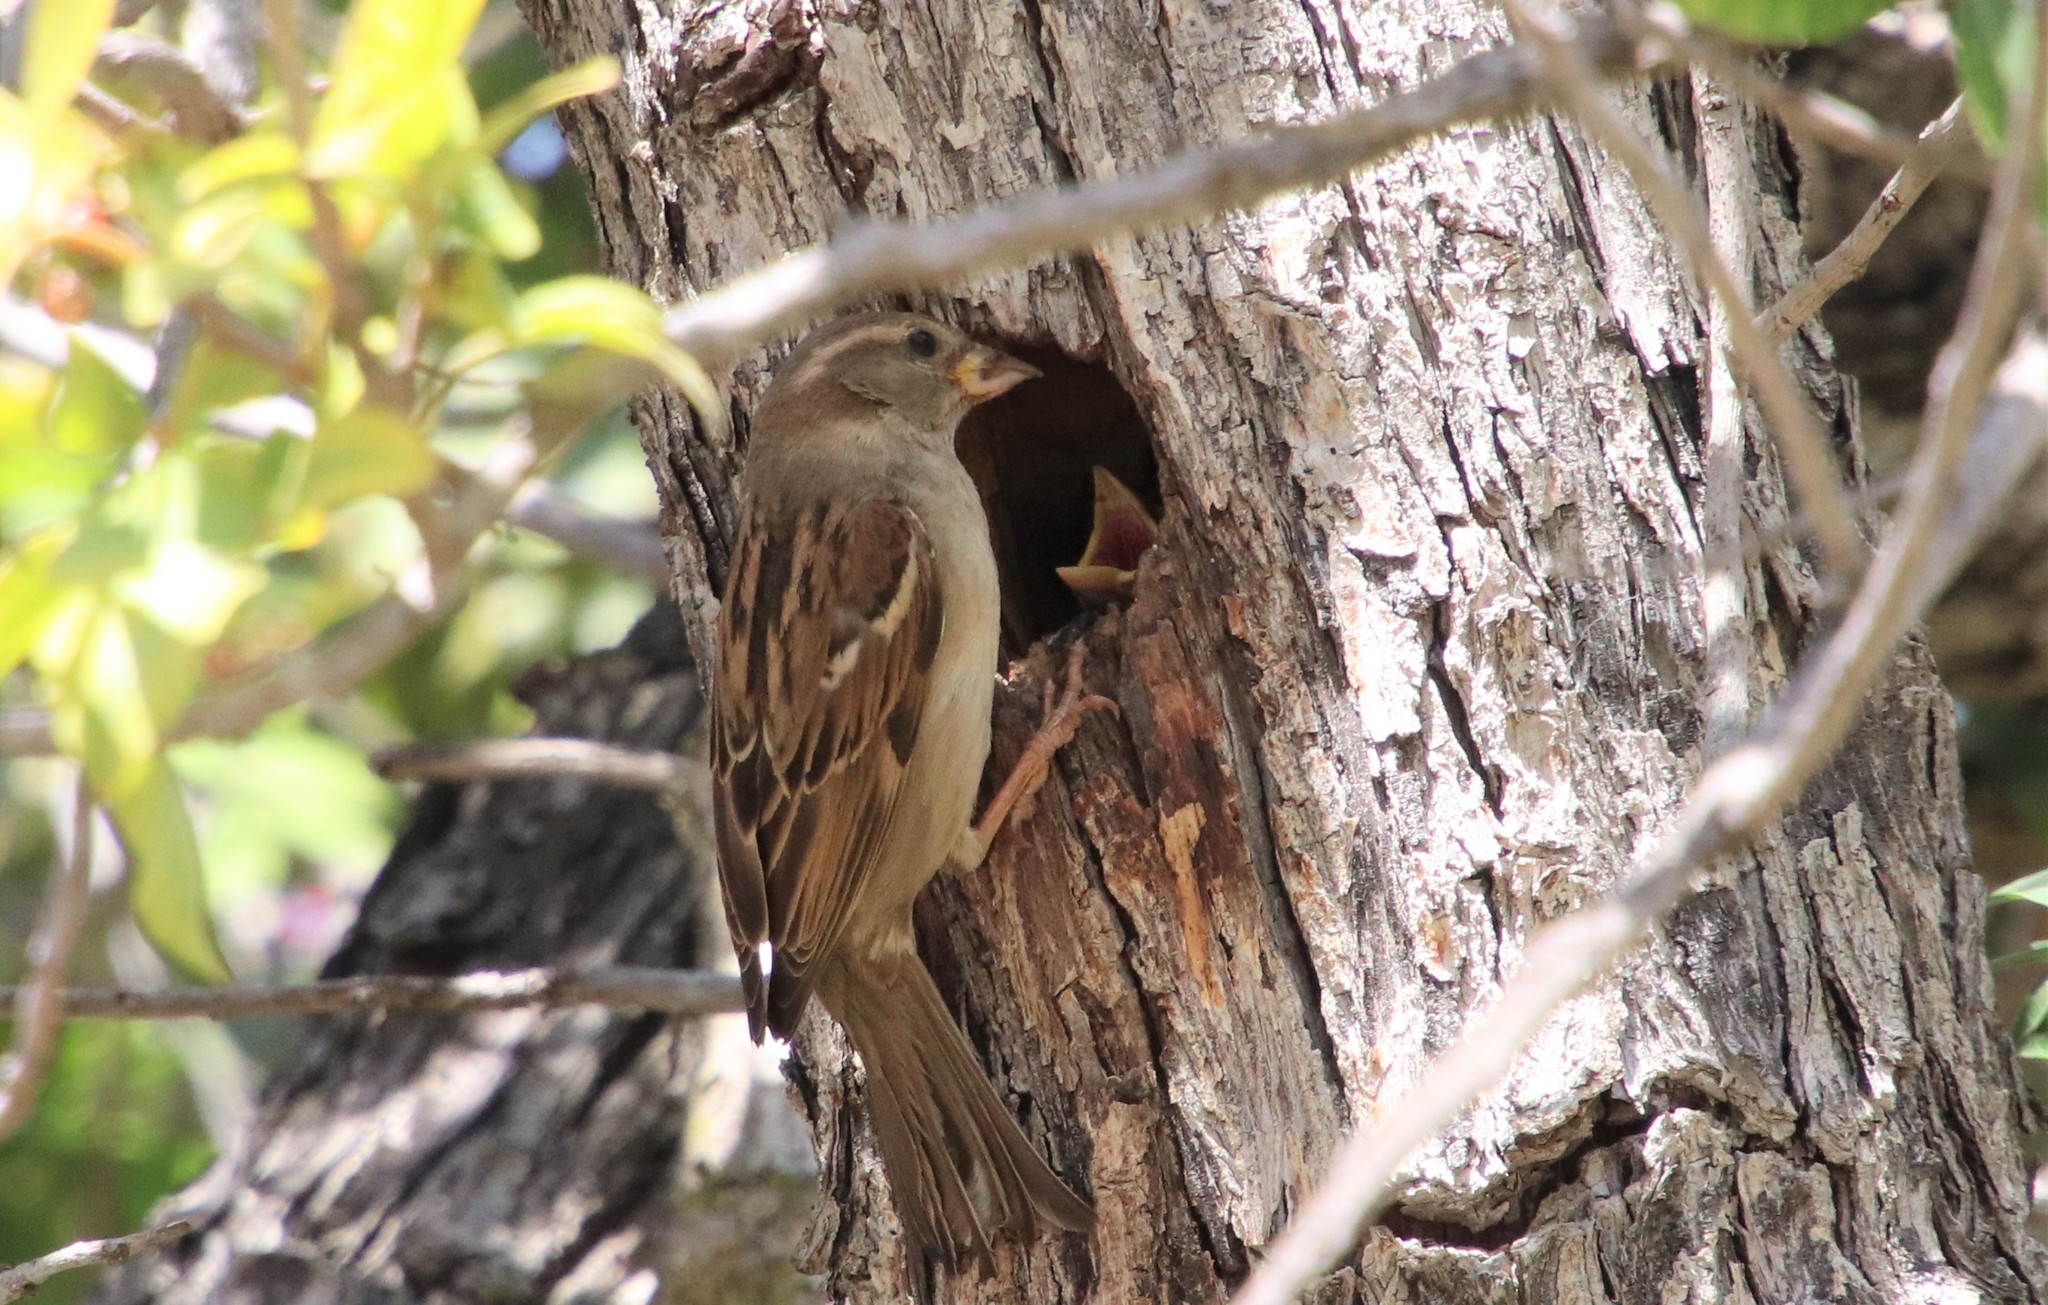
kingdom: Animalia
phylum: Chordata
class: Aves
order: Passeriformes
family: Passeridae
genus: Passer
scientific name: Passer domesticus
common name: House sparrow
